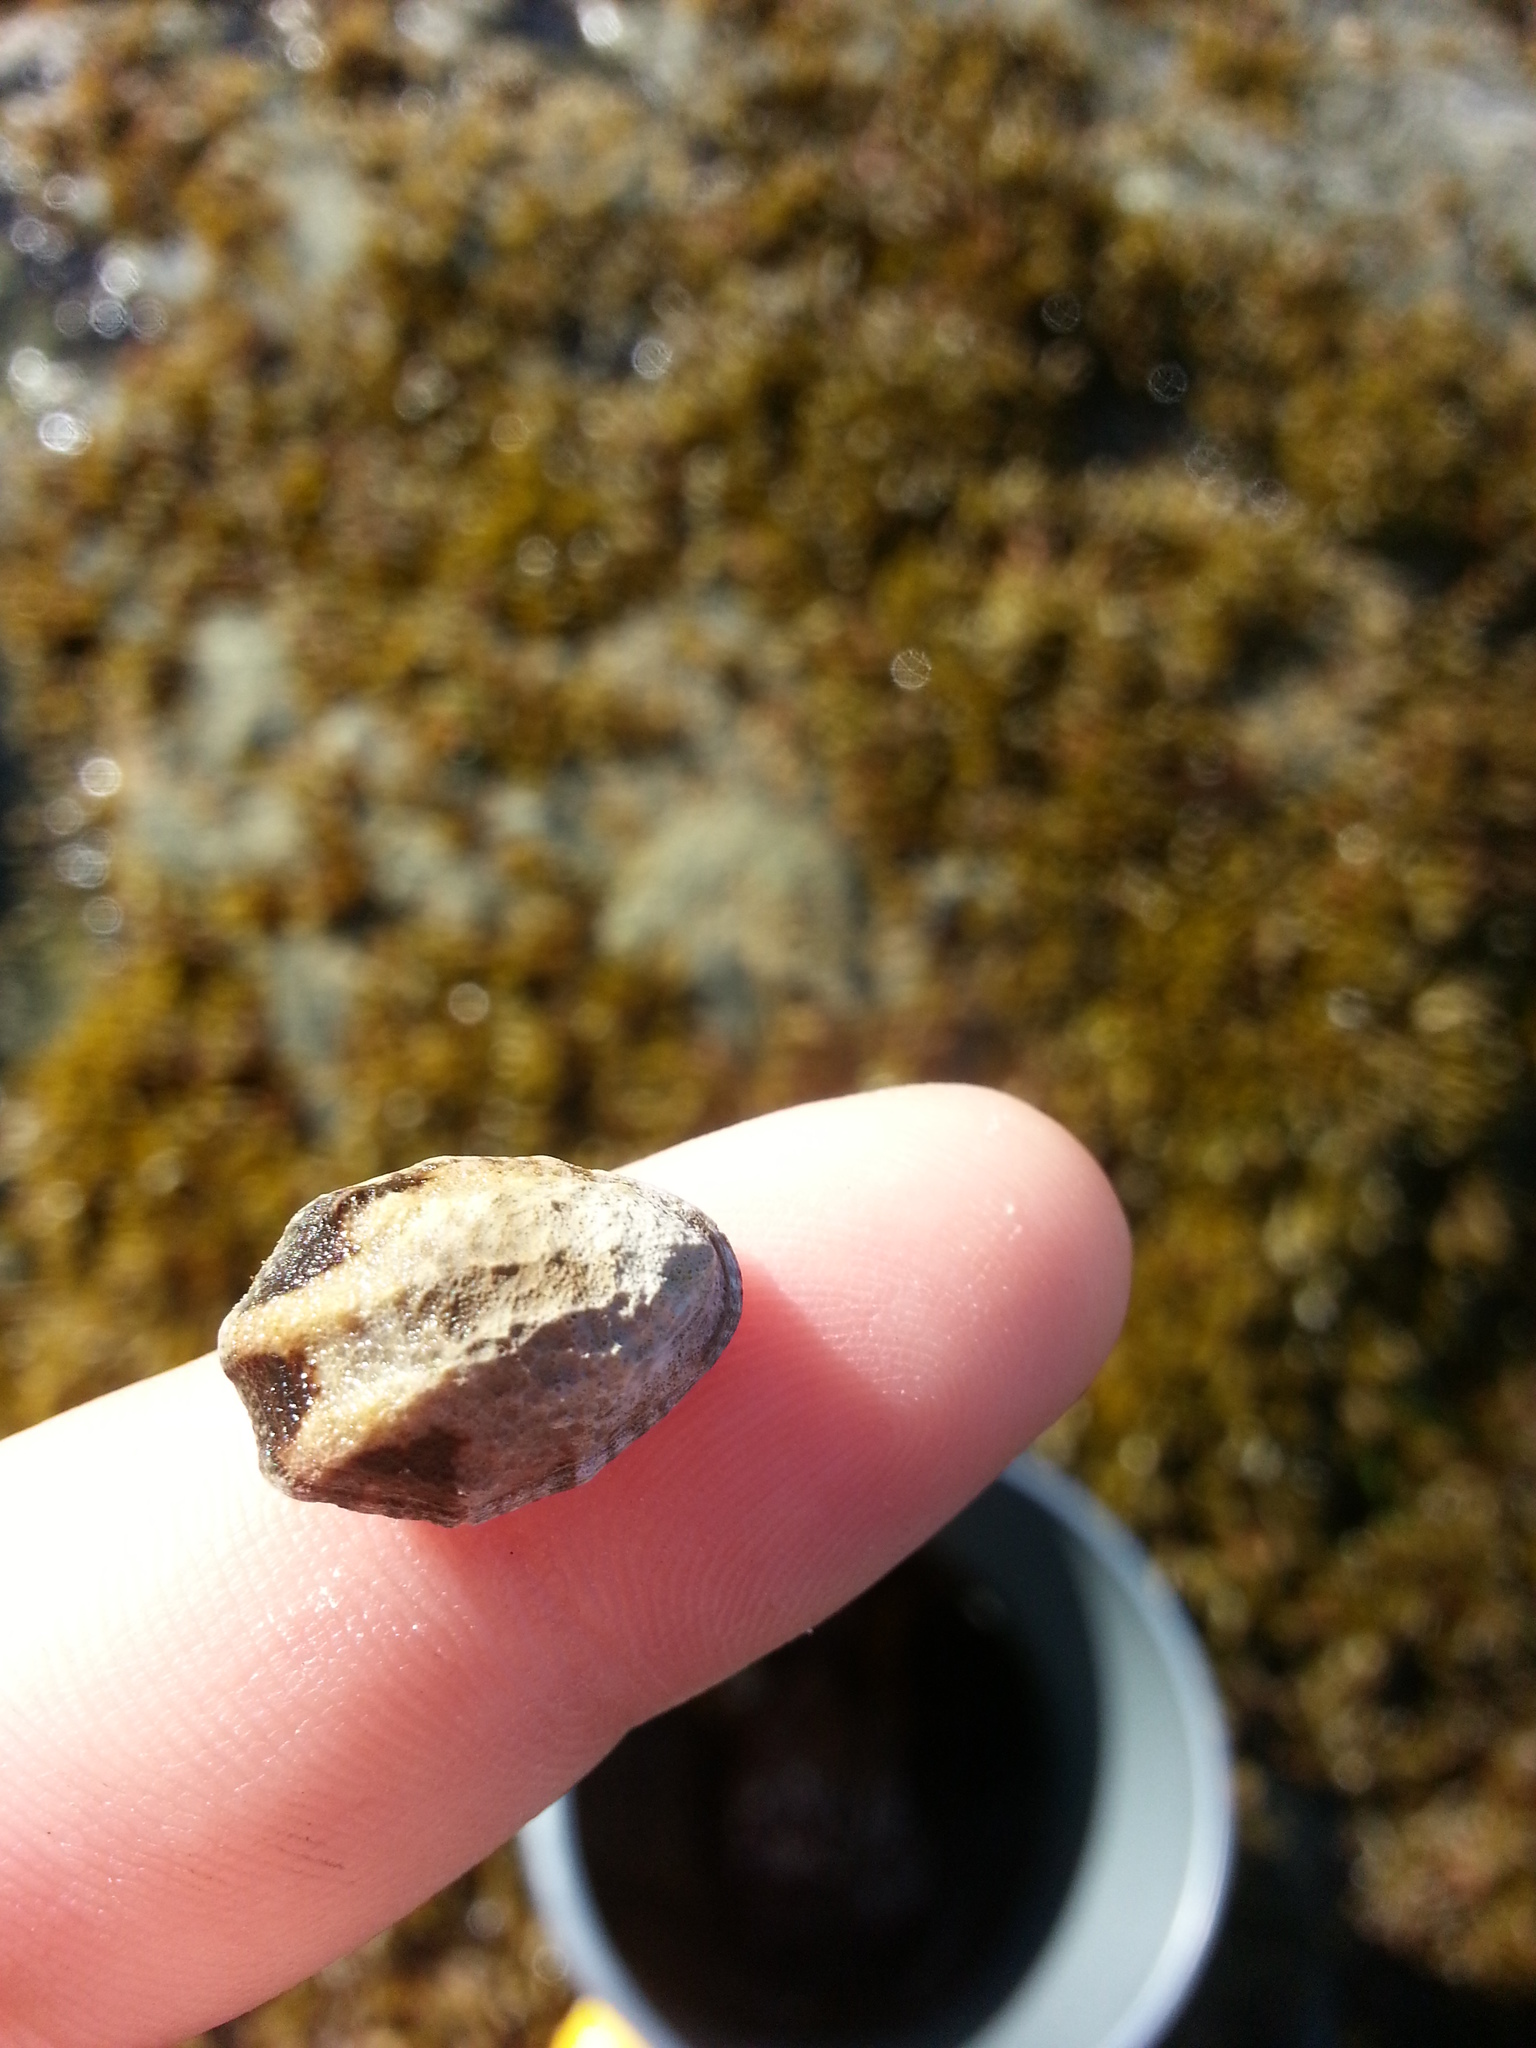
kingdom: Animalia
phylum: Mollusca
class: Gastropoda
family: Lottiidae
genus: Lottia
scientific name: Lottia digitalis
